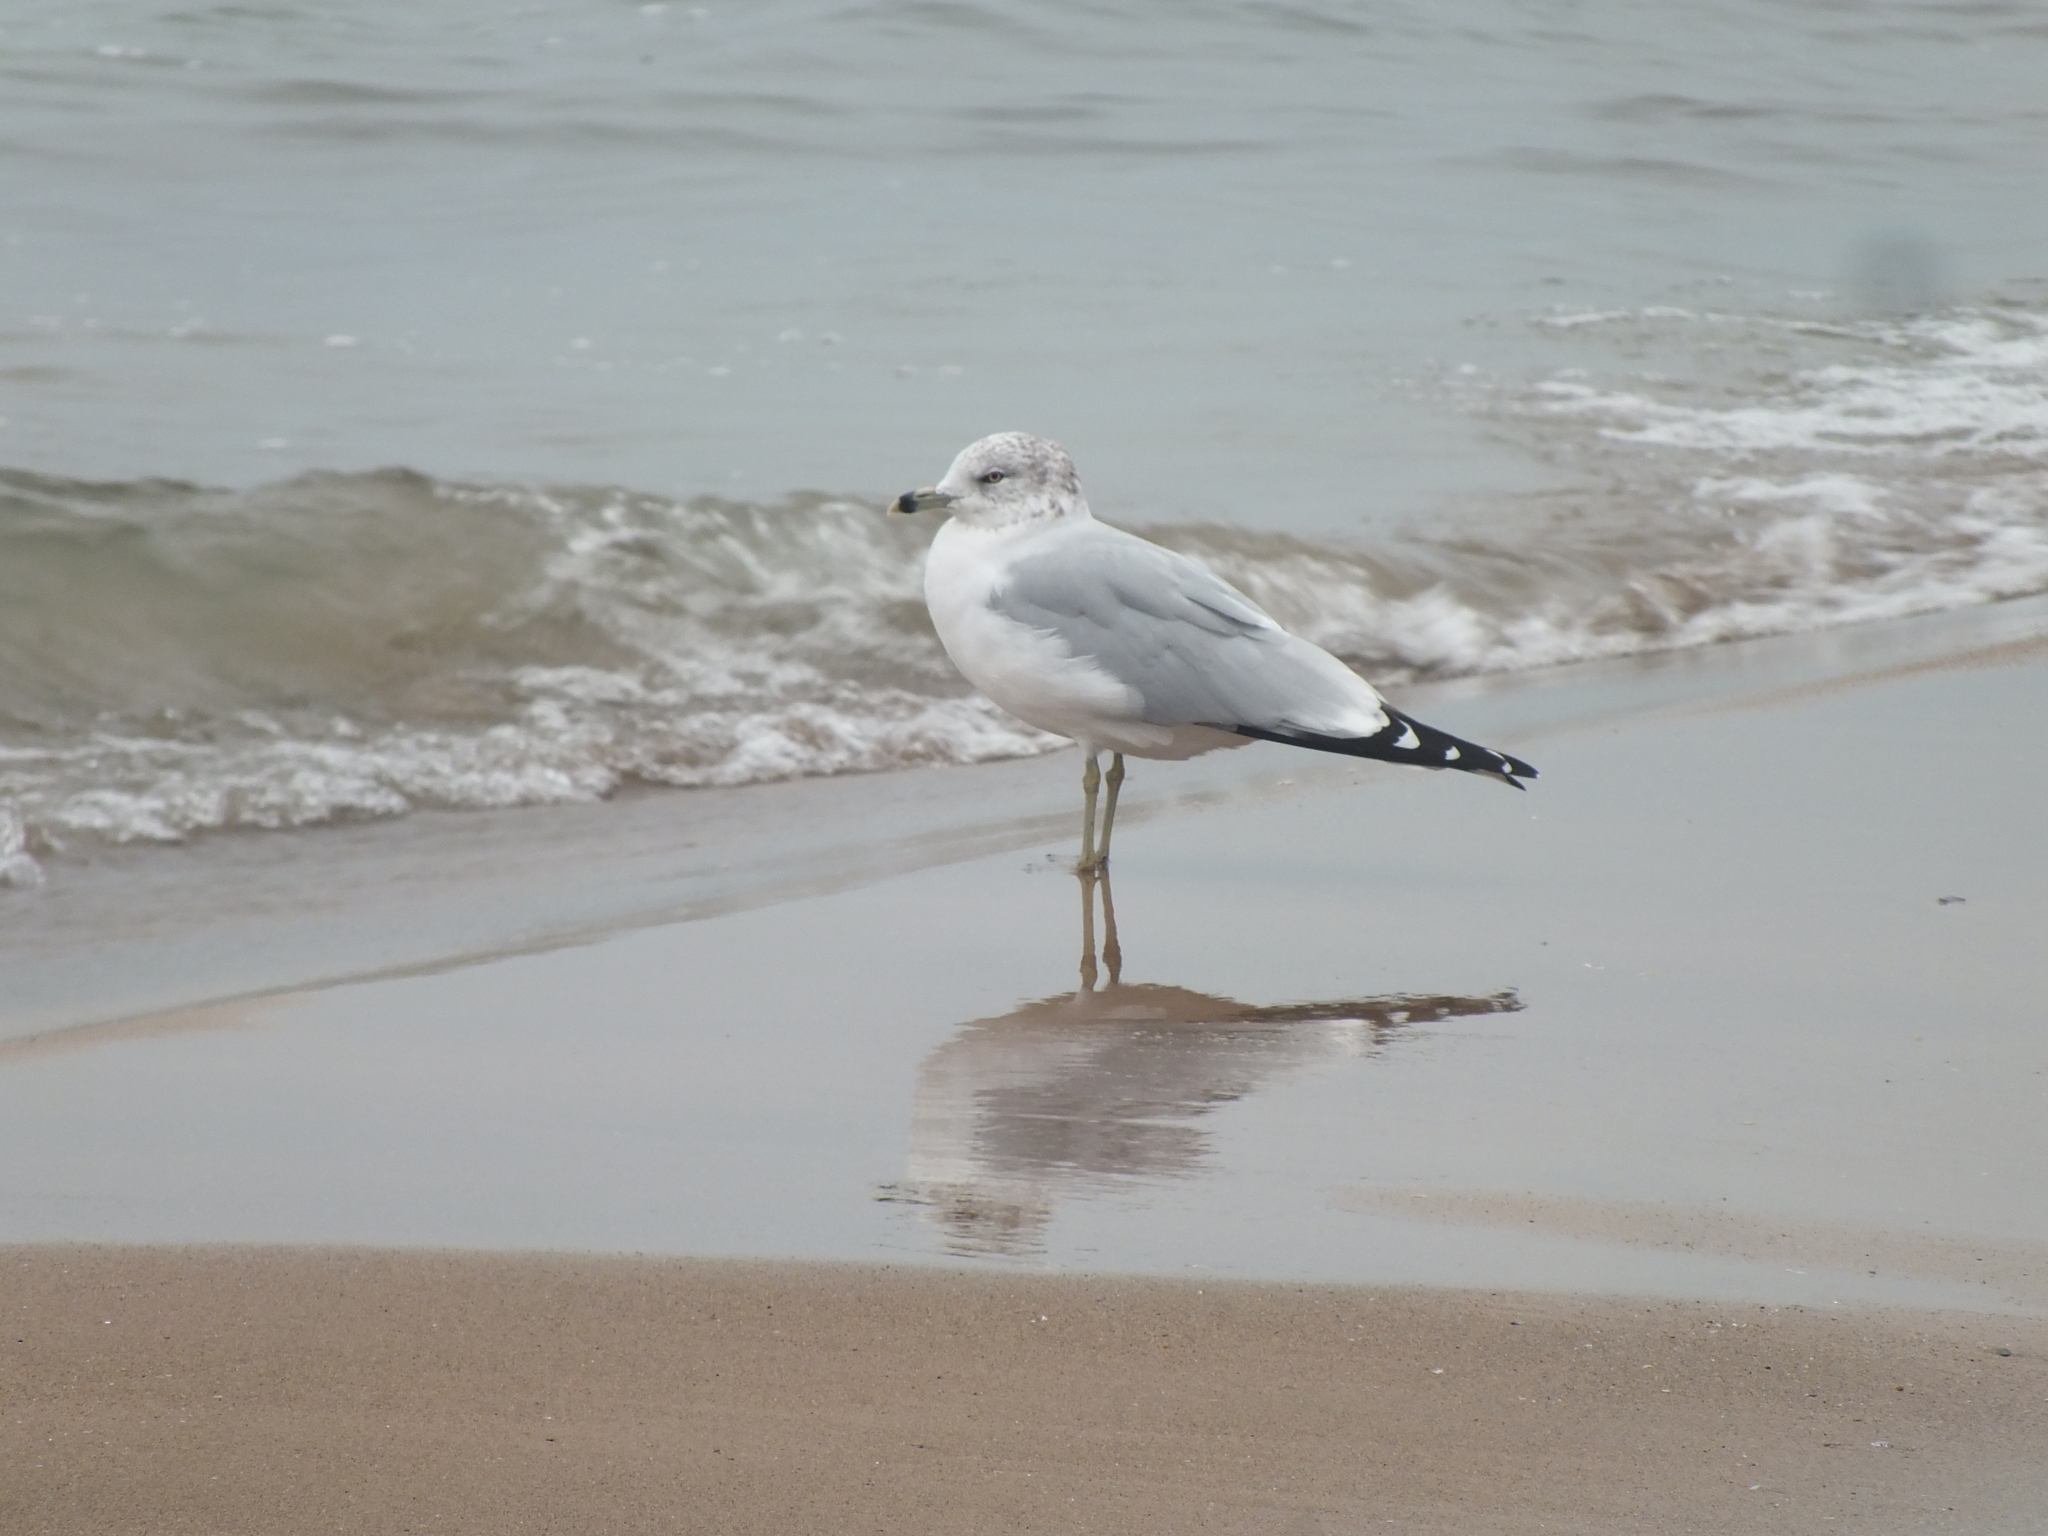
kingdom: Animalia
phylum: Chordata
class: Aves
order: Charadriiformes
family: Laridae
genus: Larus
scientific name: Larus delawarensis
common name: Ring-billed gull
